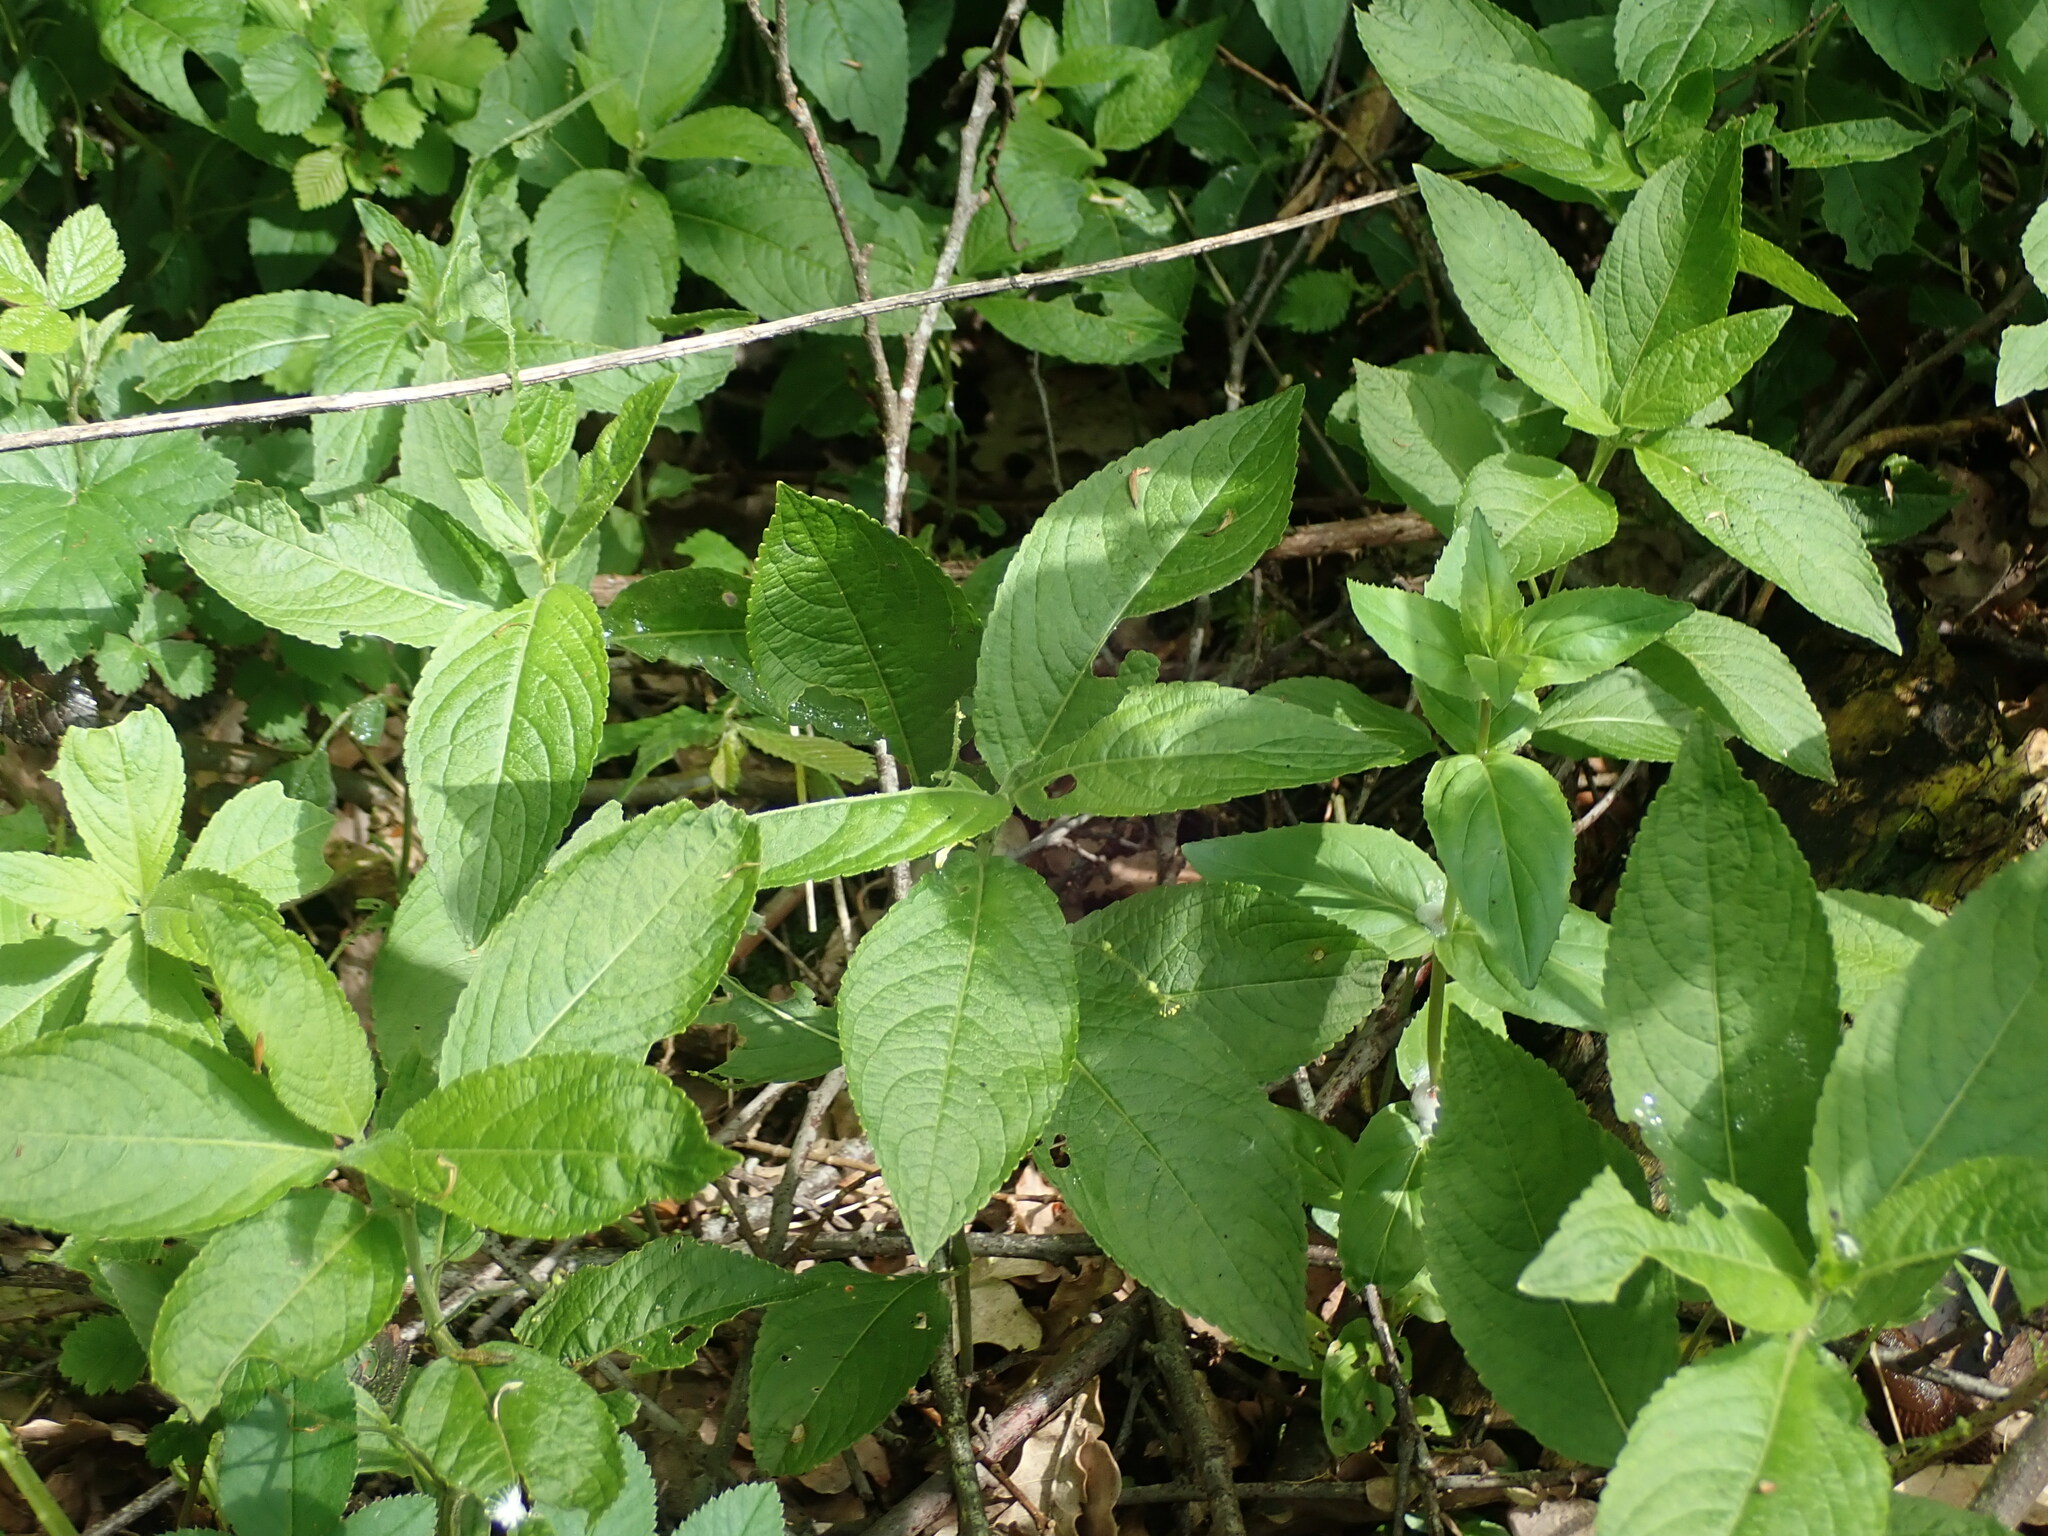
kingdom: Plantae
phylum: Tracheophyta
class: Magnoliopsida
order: Malpighiales
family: Euphorbiaceae
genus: Mercurialis
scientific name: Mercurialis perennis
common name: Dog mercury
